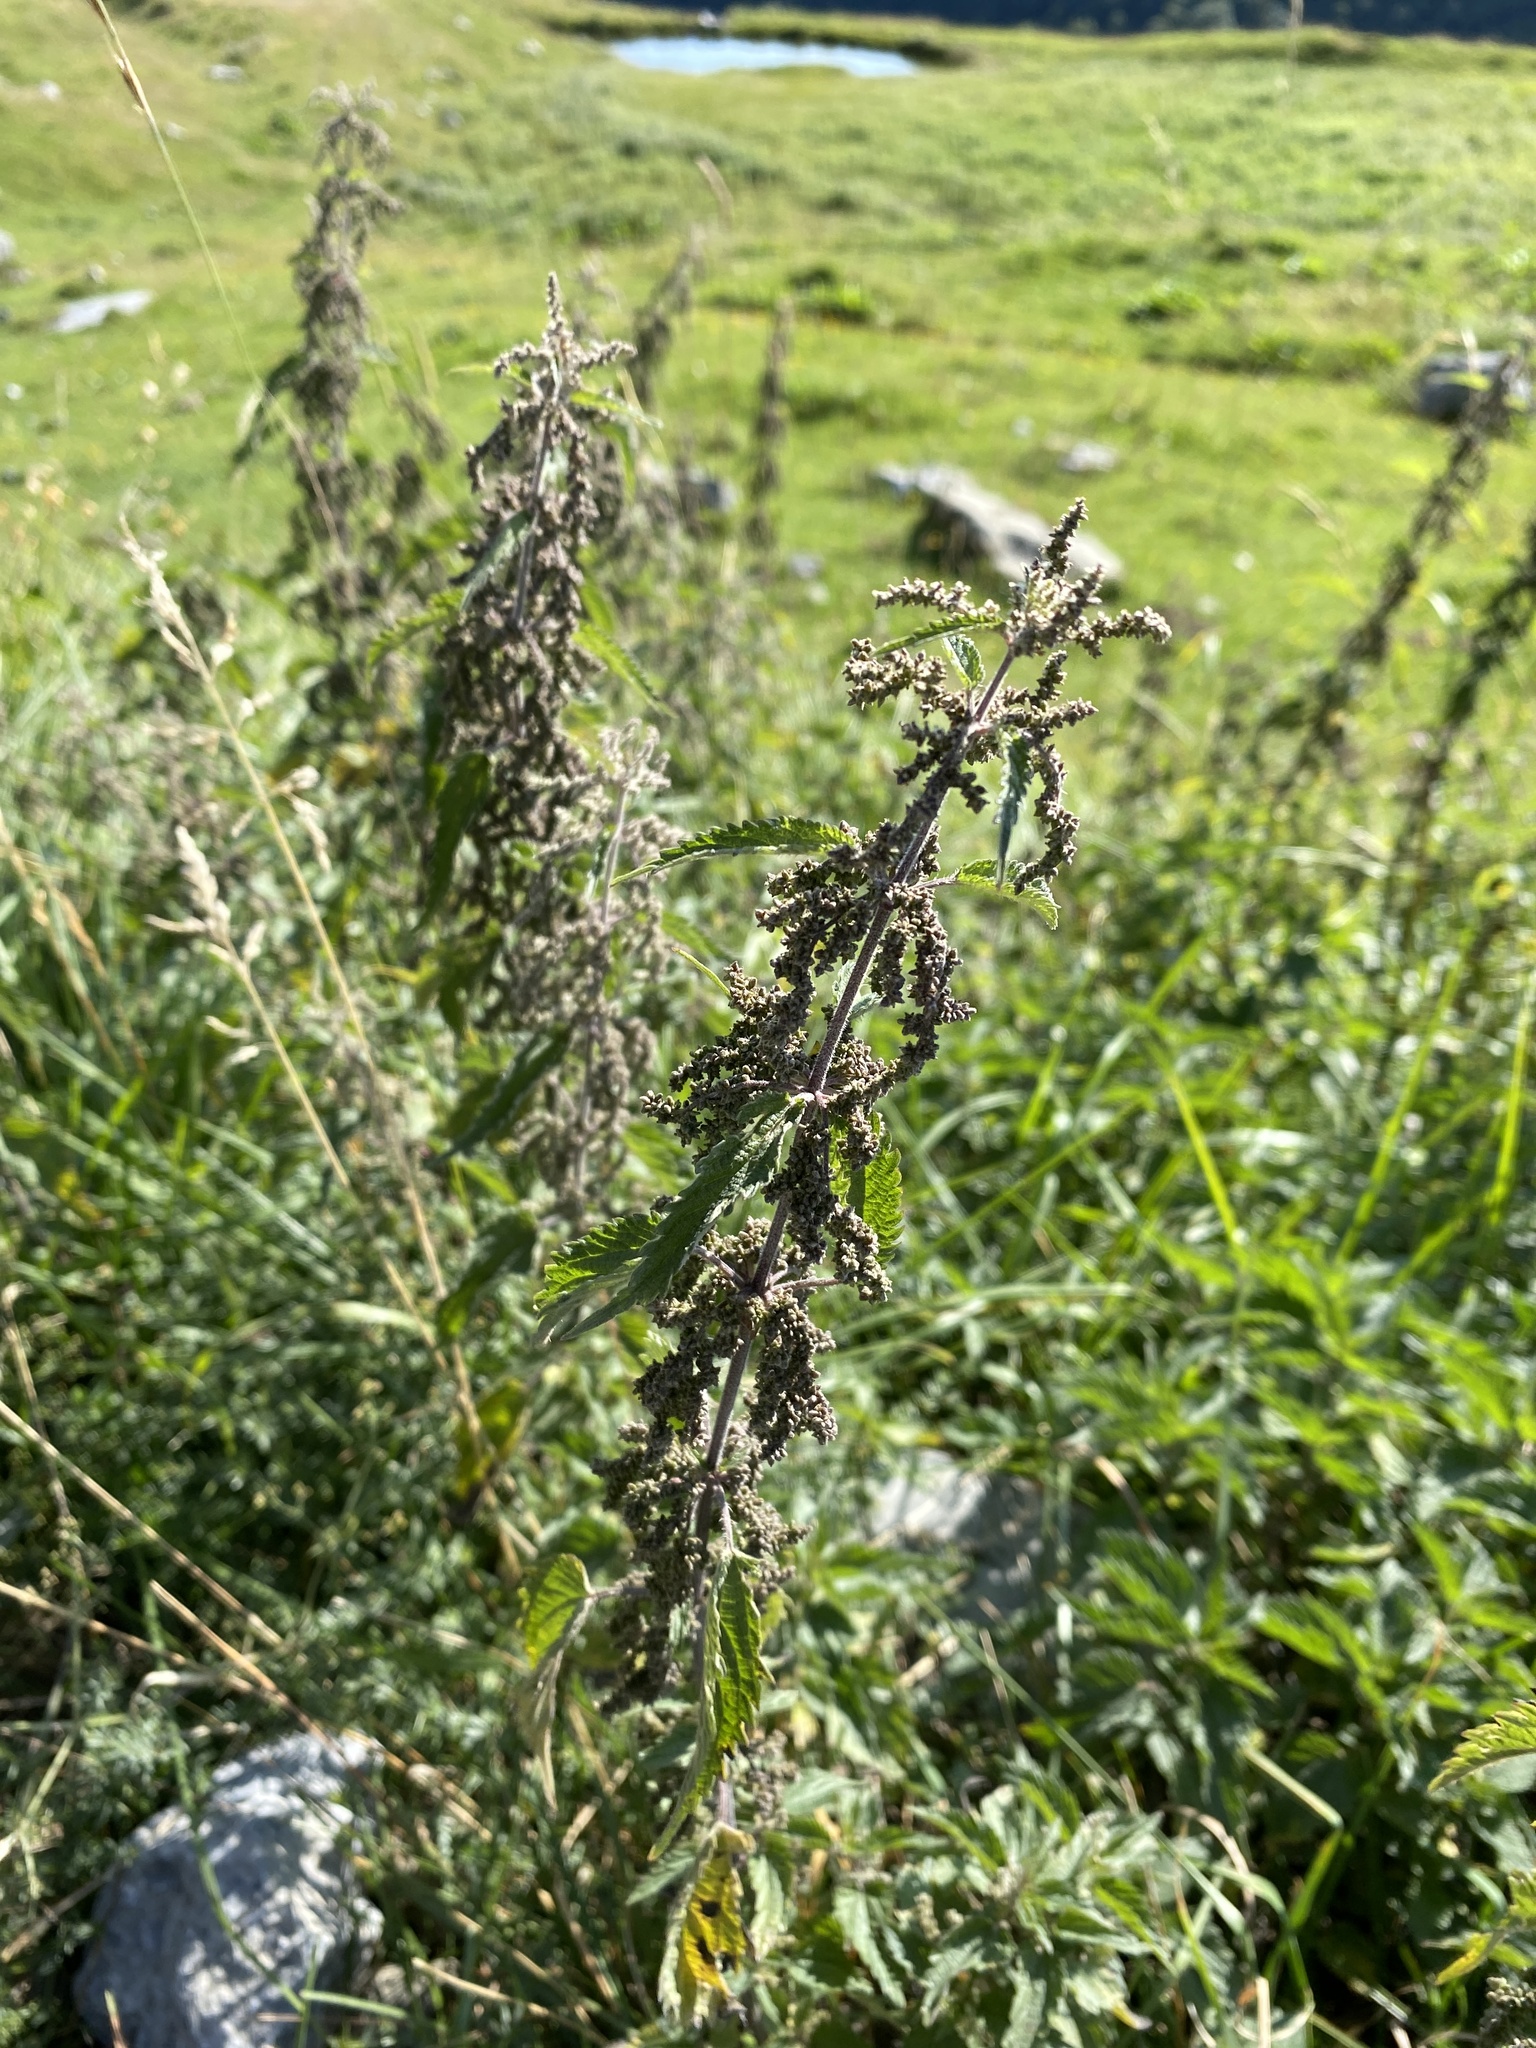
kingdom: Plantae
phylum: Tracheophyta
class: Magnoliopsida
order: Rosales
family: Urticaceae
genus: Urtica
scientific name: Urtica dioica
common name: Common nettle
